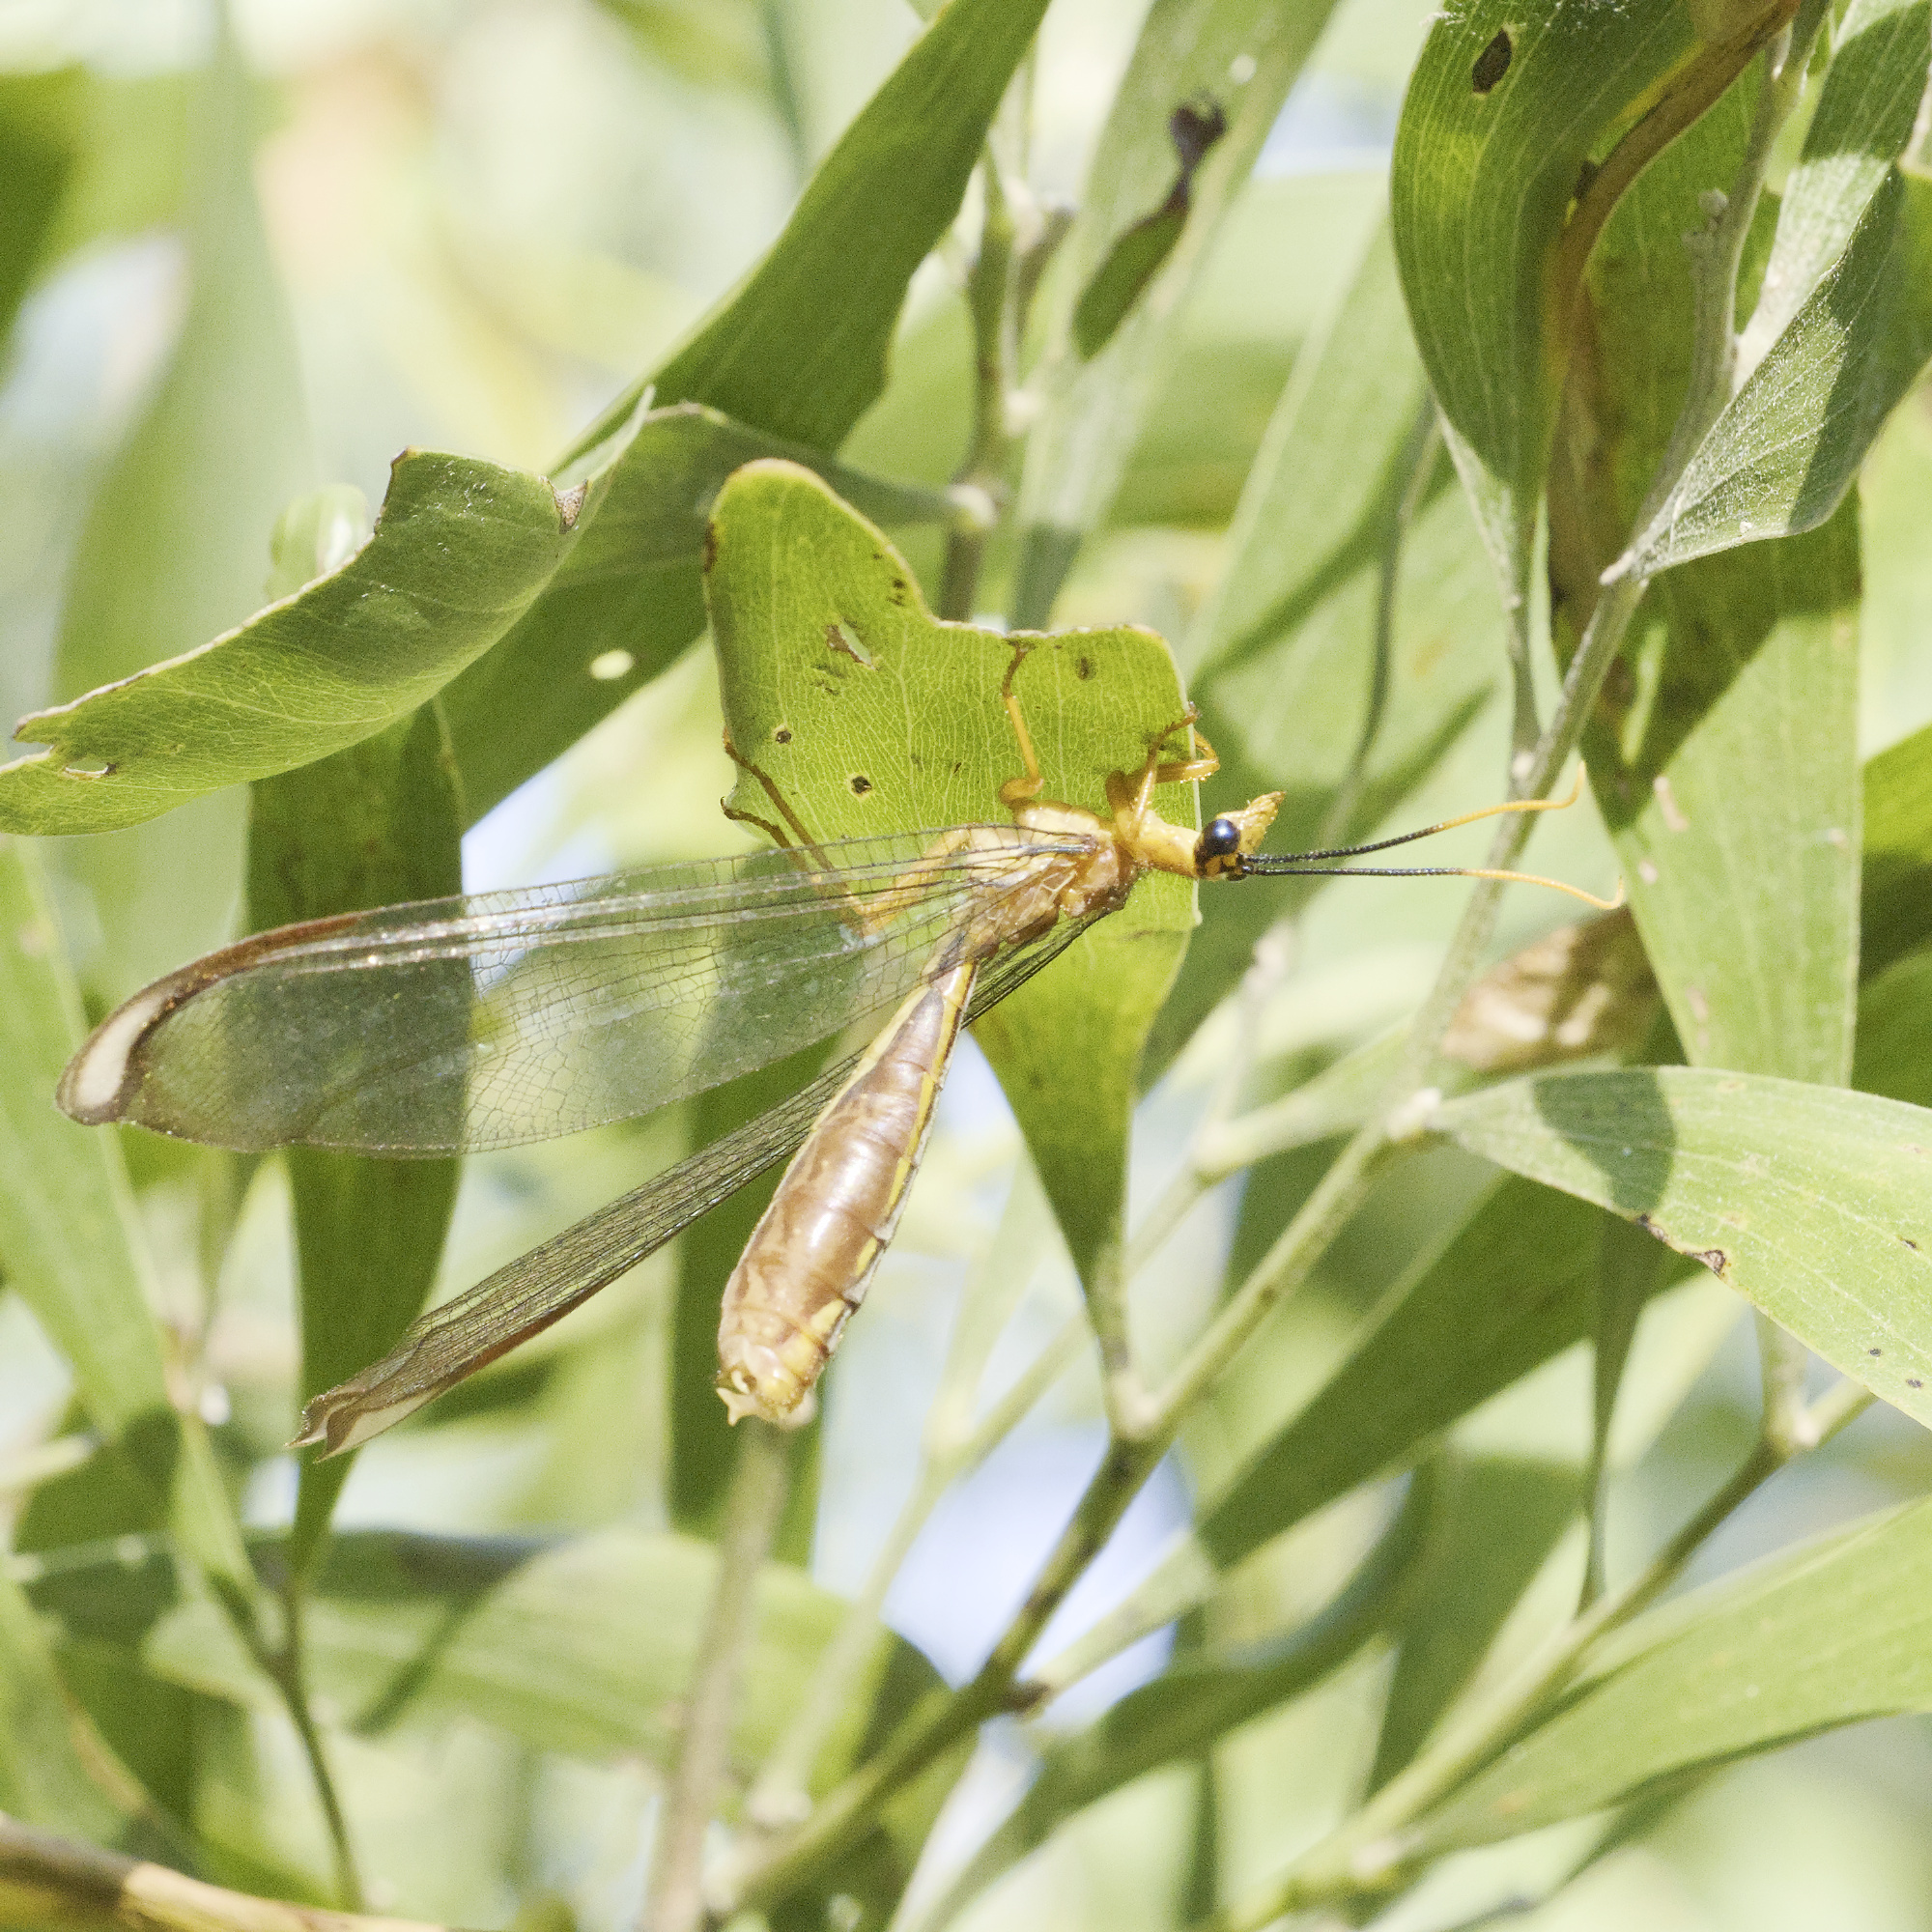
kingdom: Animalia
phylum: Arthropoda
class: Insecta
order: Neuroptera
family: Nymphidae
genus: Nymphes
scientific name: Nymphes myrmeleonoides
